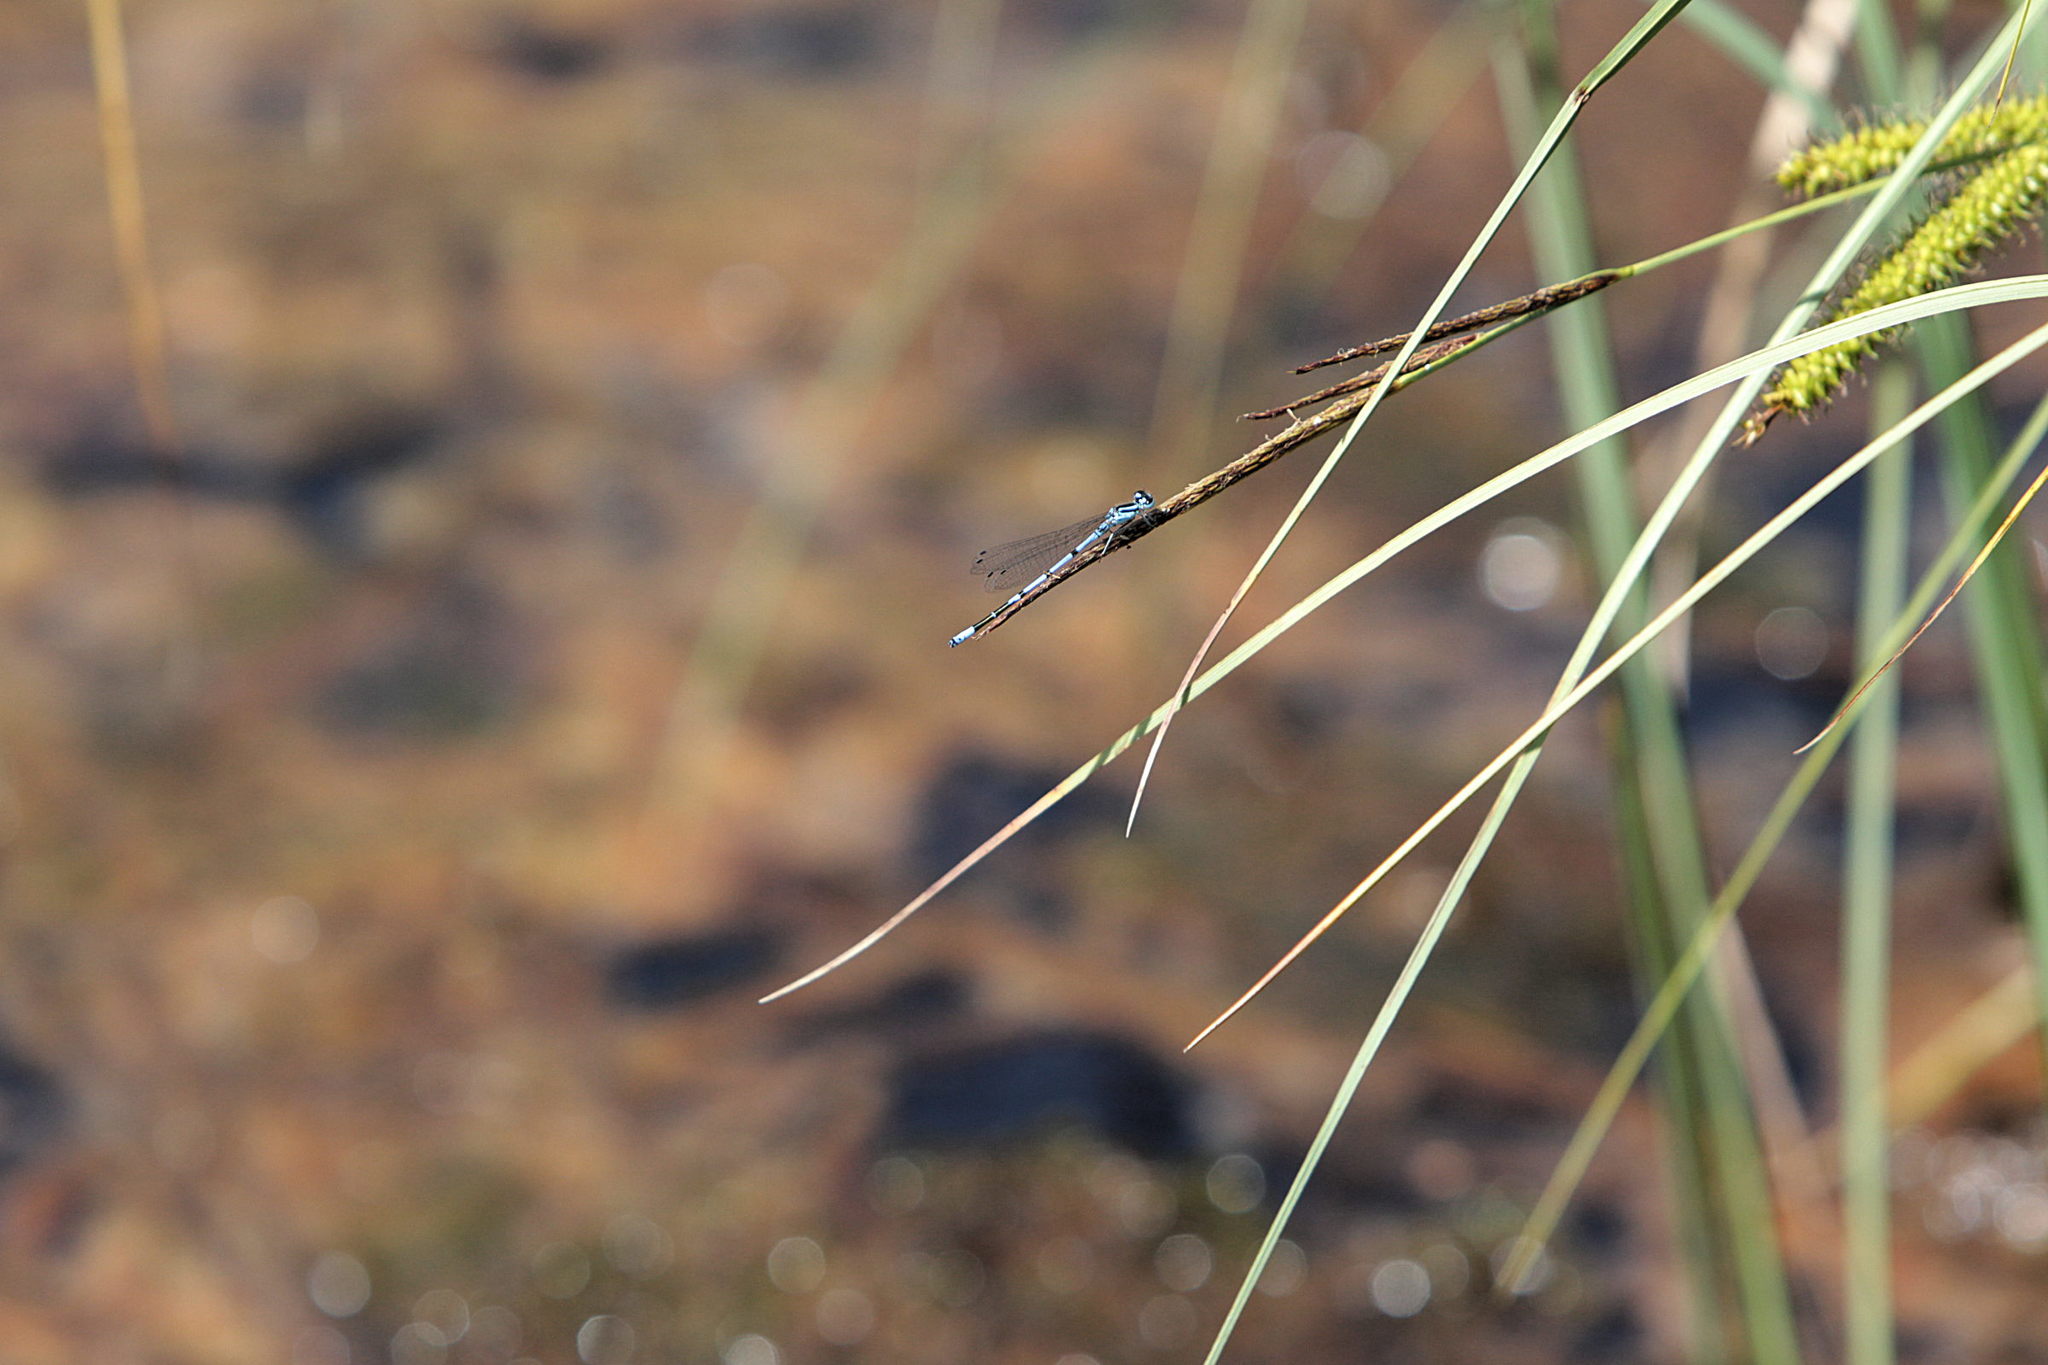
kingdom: Animalia
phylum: Arthropoda
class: Insecta
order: Odonata
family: Coenagrionidae
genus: Coenagrion
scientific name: Coenagrion puella
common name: Azure damselfly
